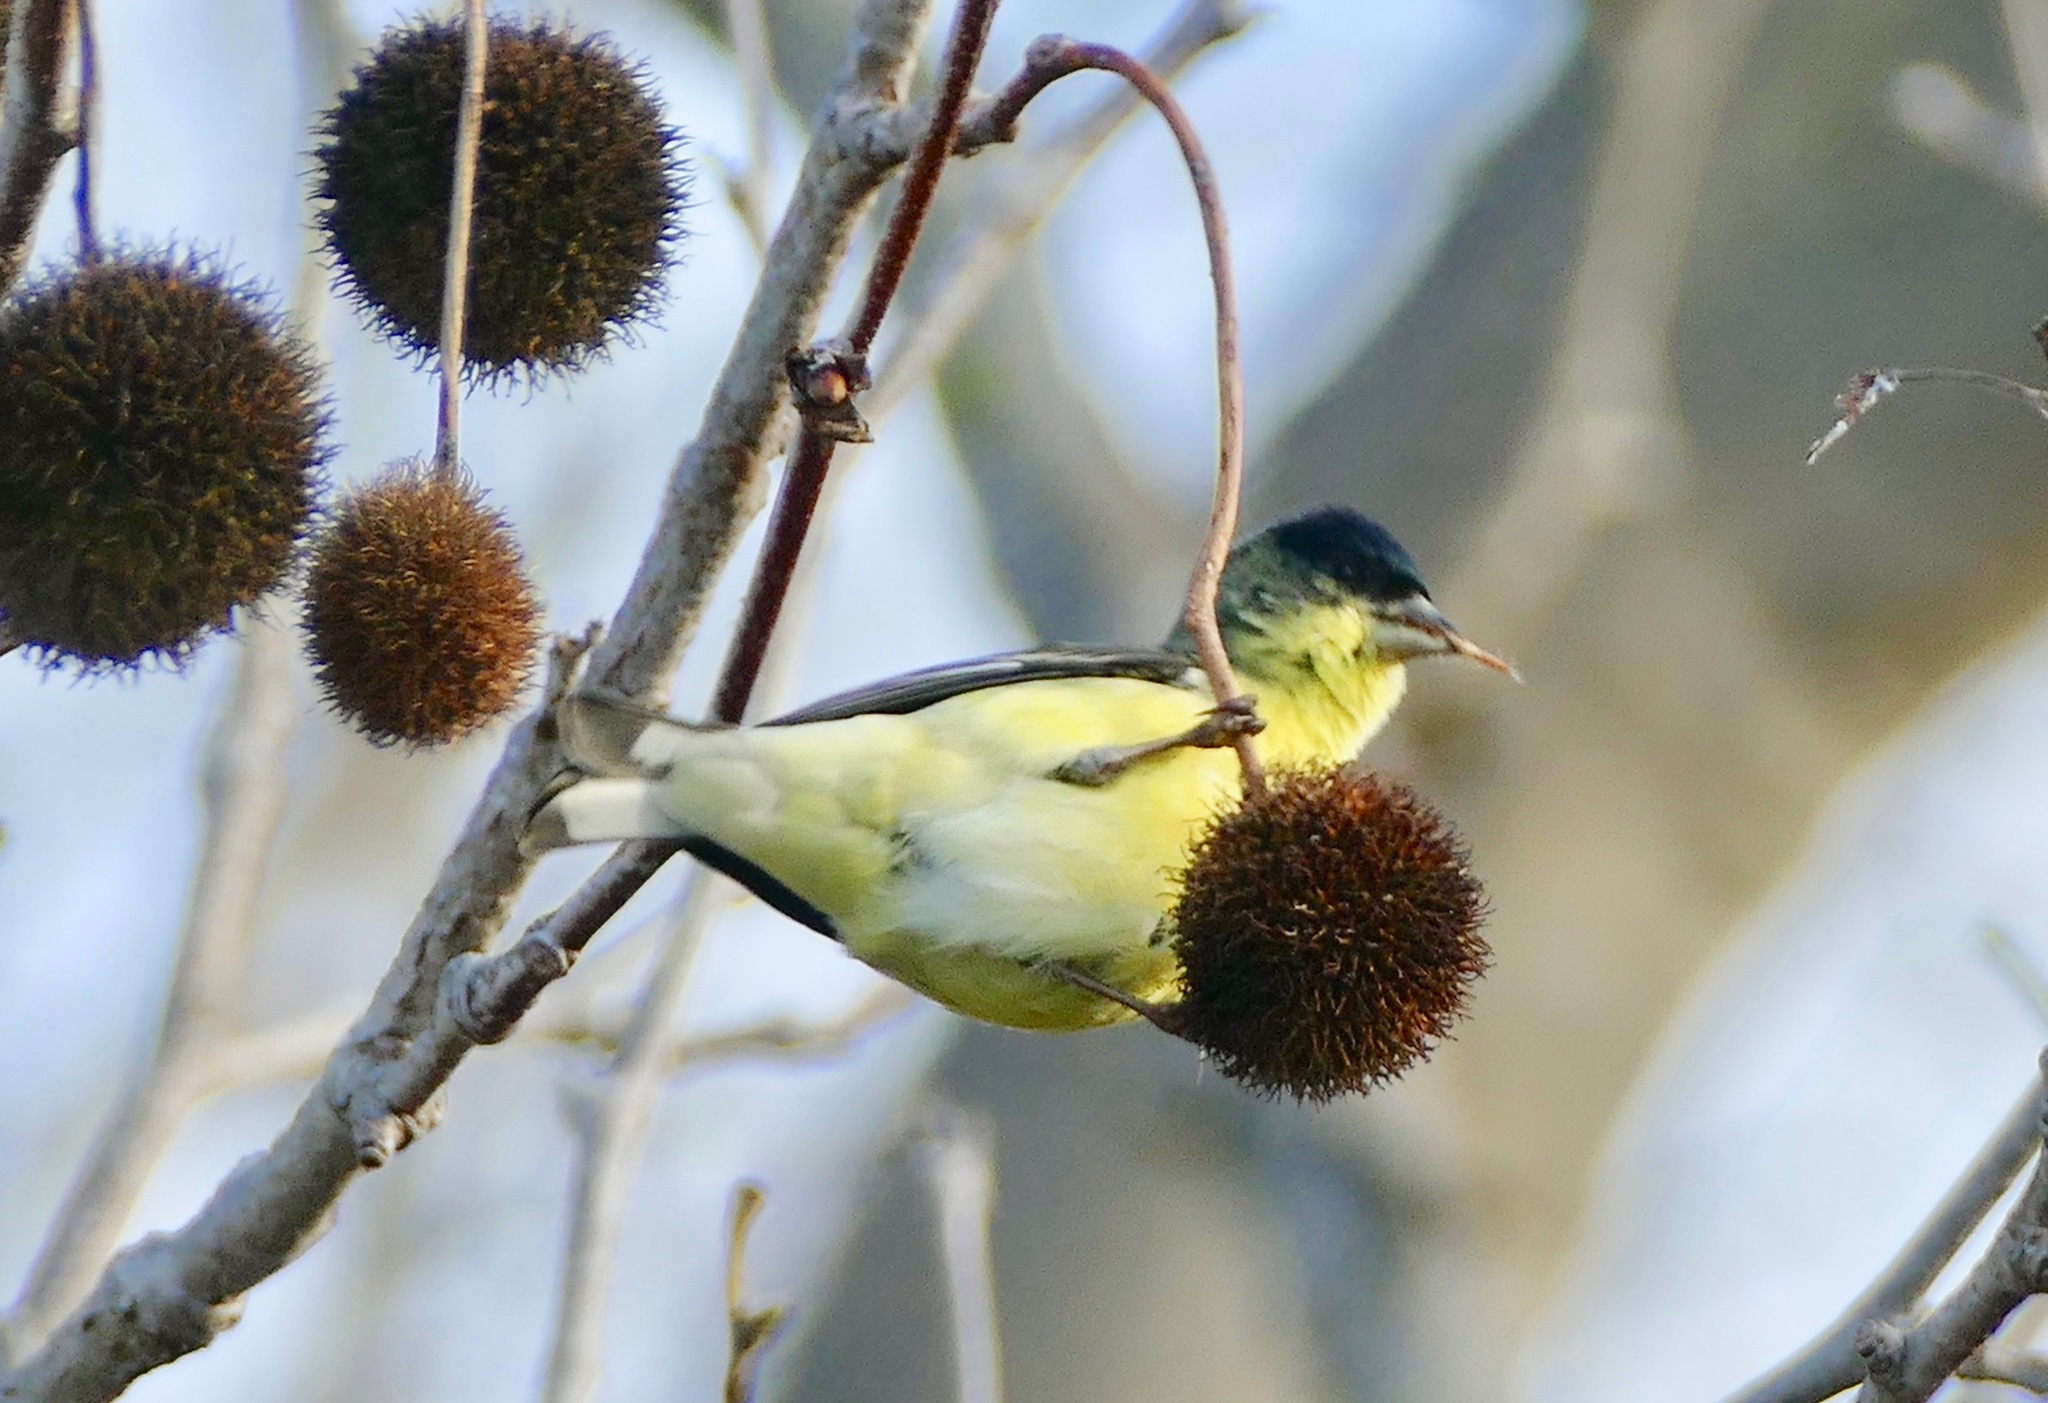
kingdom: Animalia
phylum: Chordata
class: Aves
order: Passeriformes
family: Fringillidae
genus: Spinus
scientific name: Spinus psaltria
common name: Lesser goldfinch
